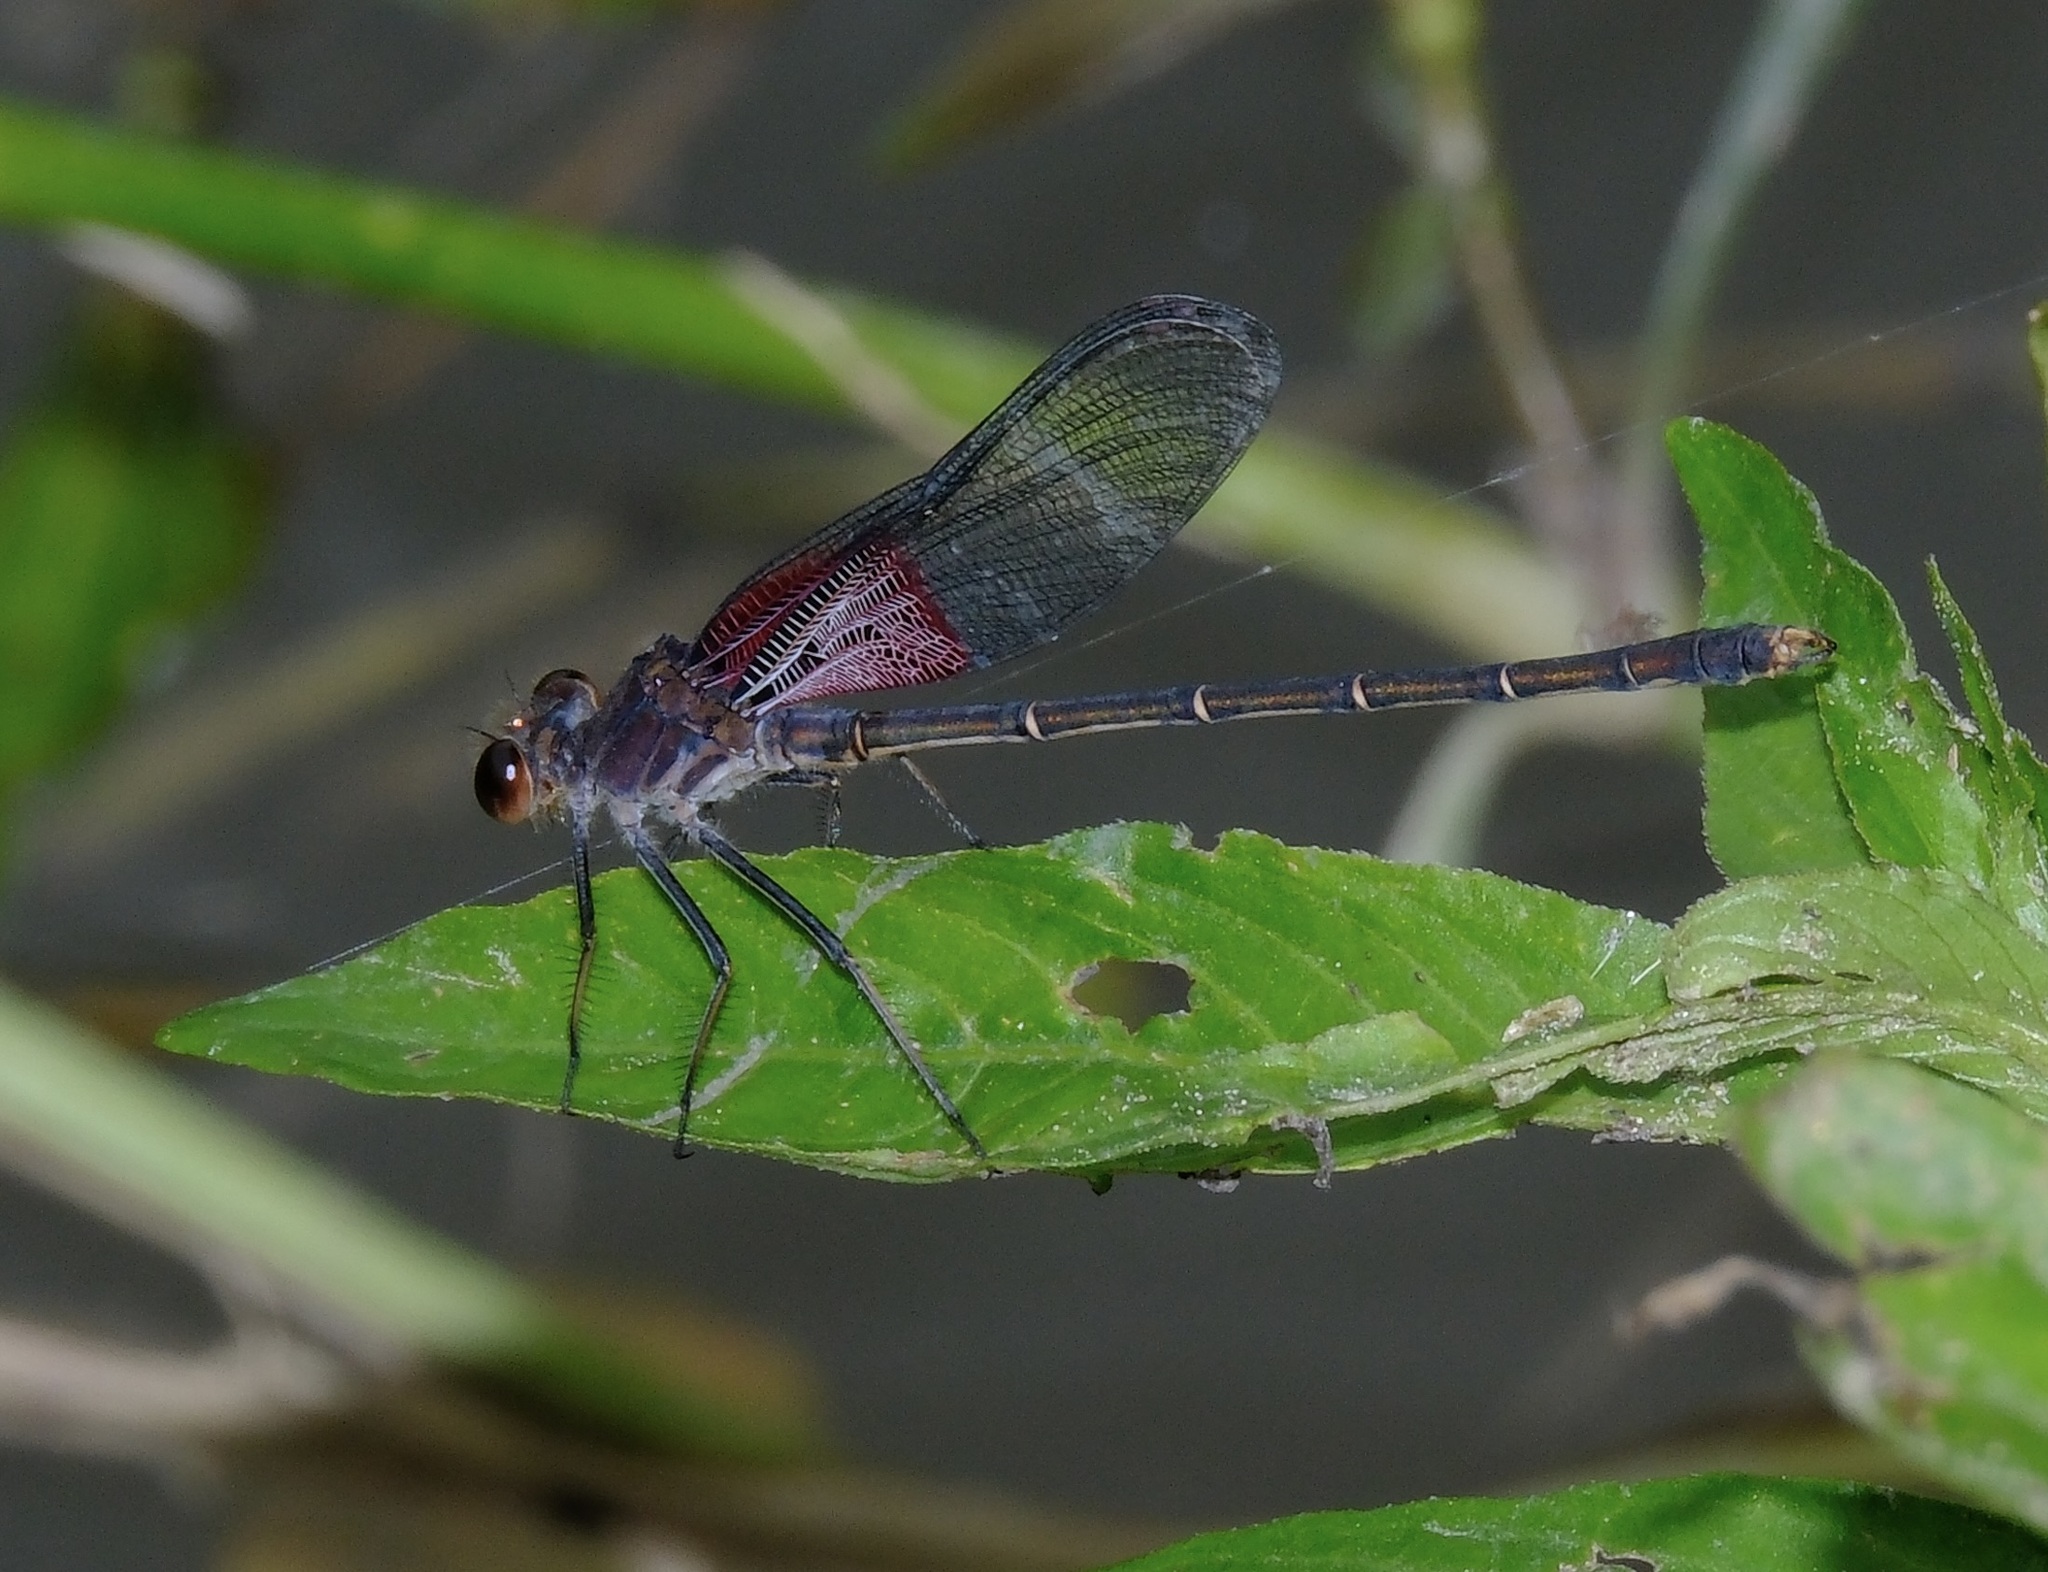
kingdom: Animalia
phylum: Arthropoda
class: Insecta
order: Odonata
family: Calopterygidae
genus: Hetaerina
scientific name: Hetaerina americana
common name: American rubyspot
